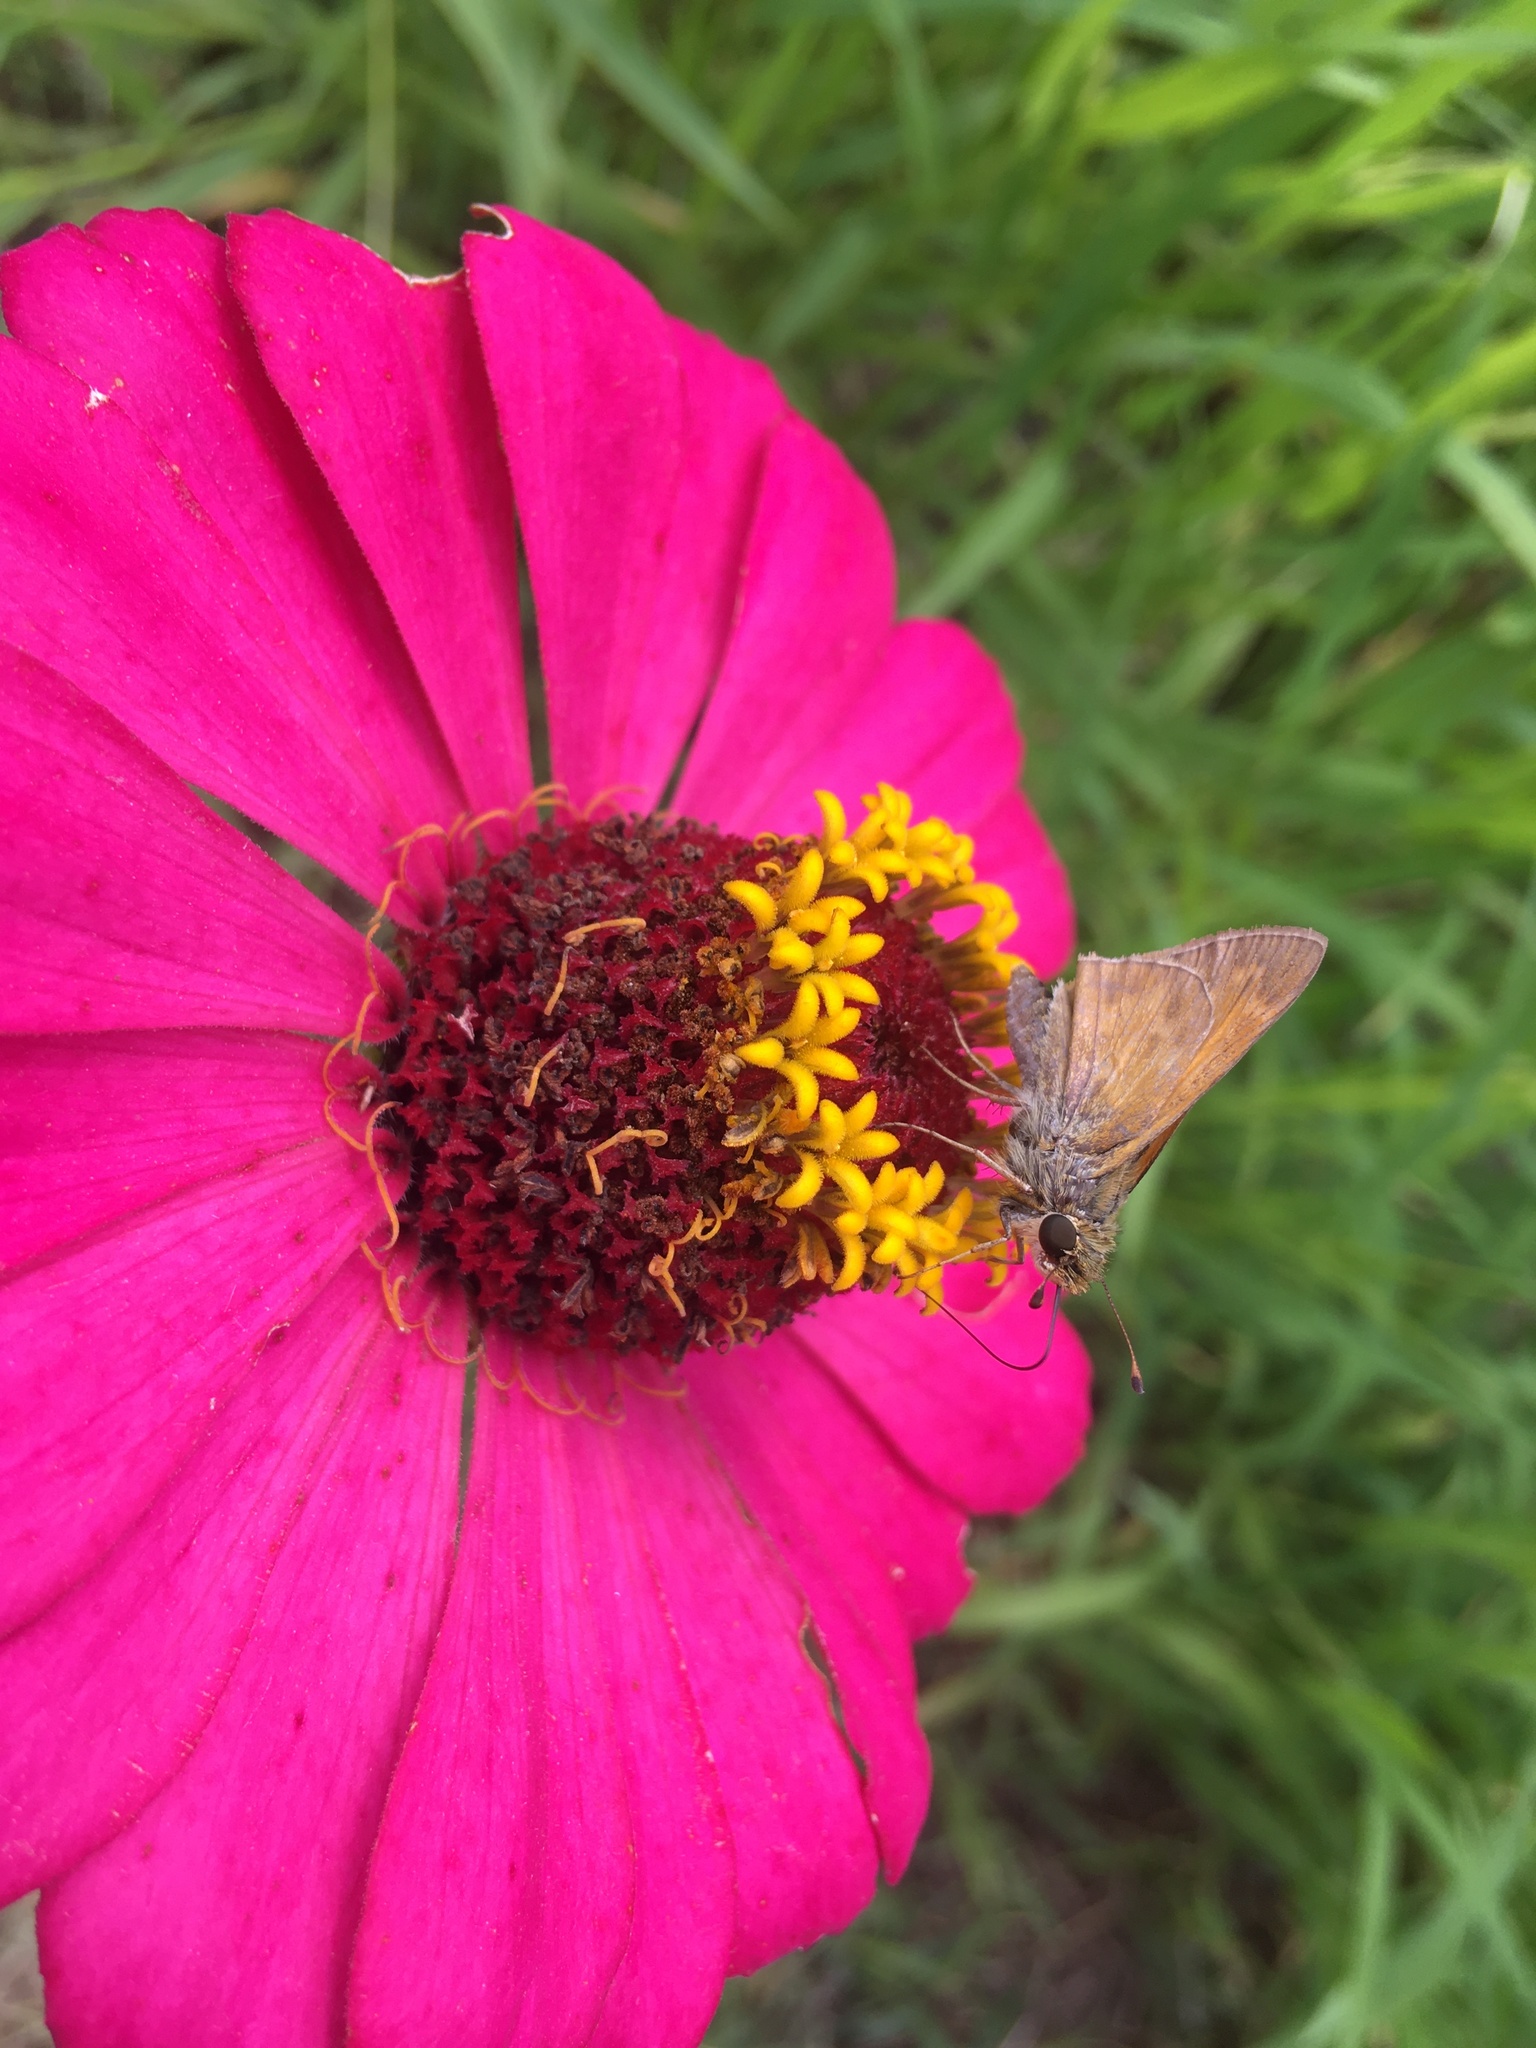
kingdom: Animalia
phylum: Arthropoda
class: Insecta
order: Lepidoptera
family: Hesperiidae
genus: Atalopedes
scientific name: Atalopedes
